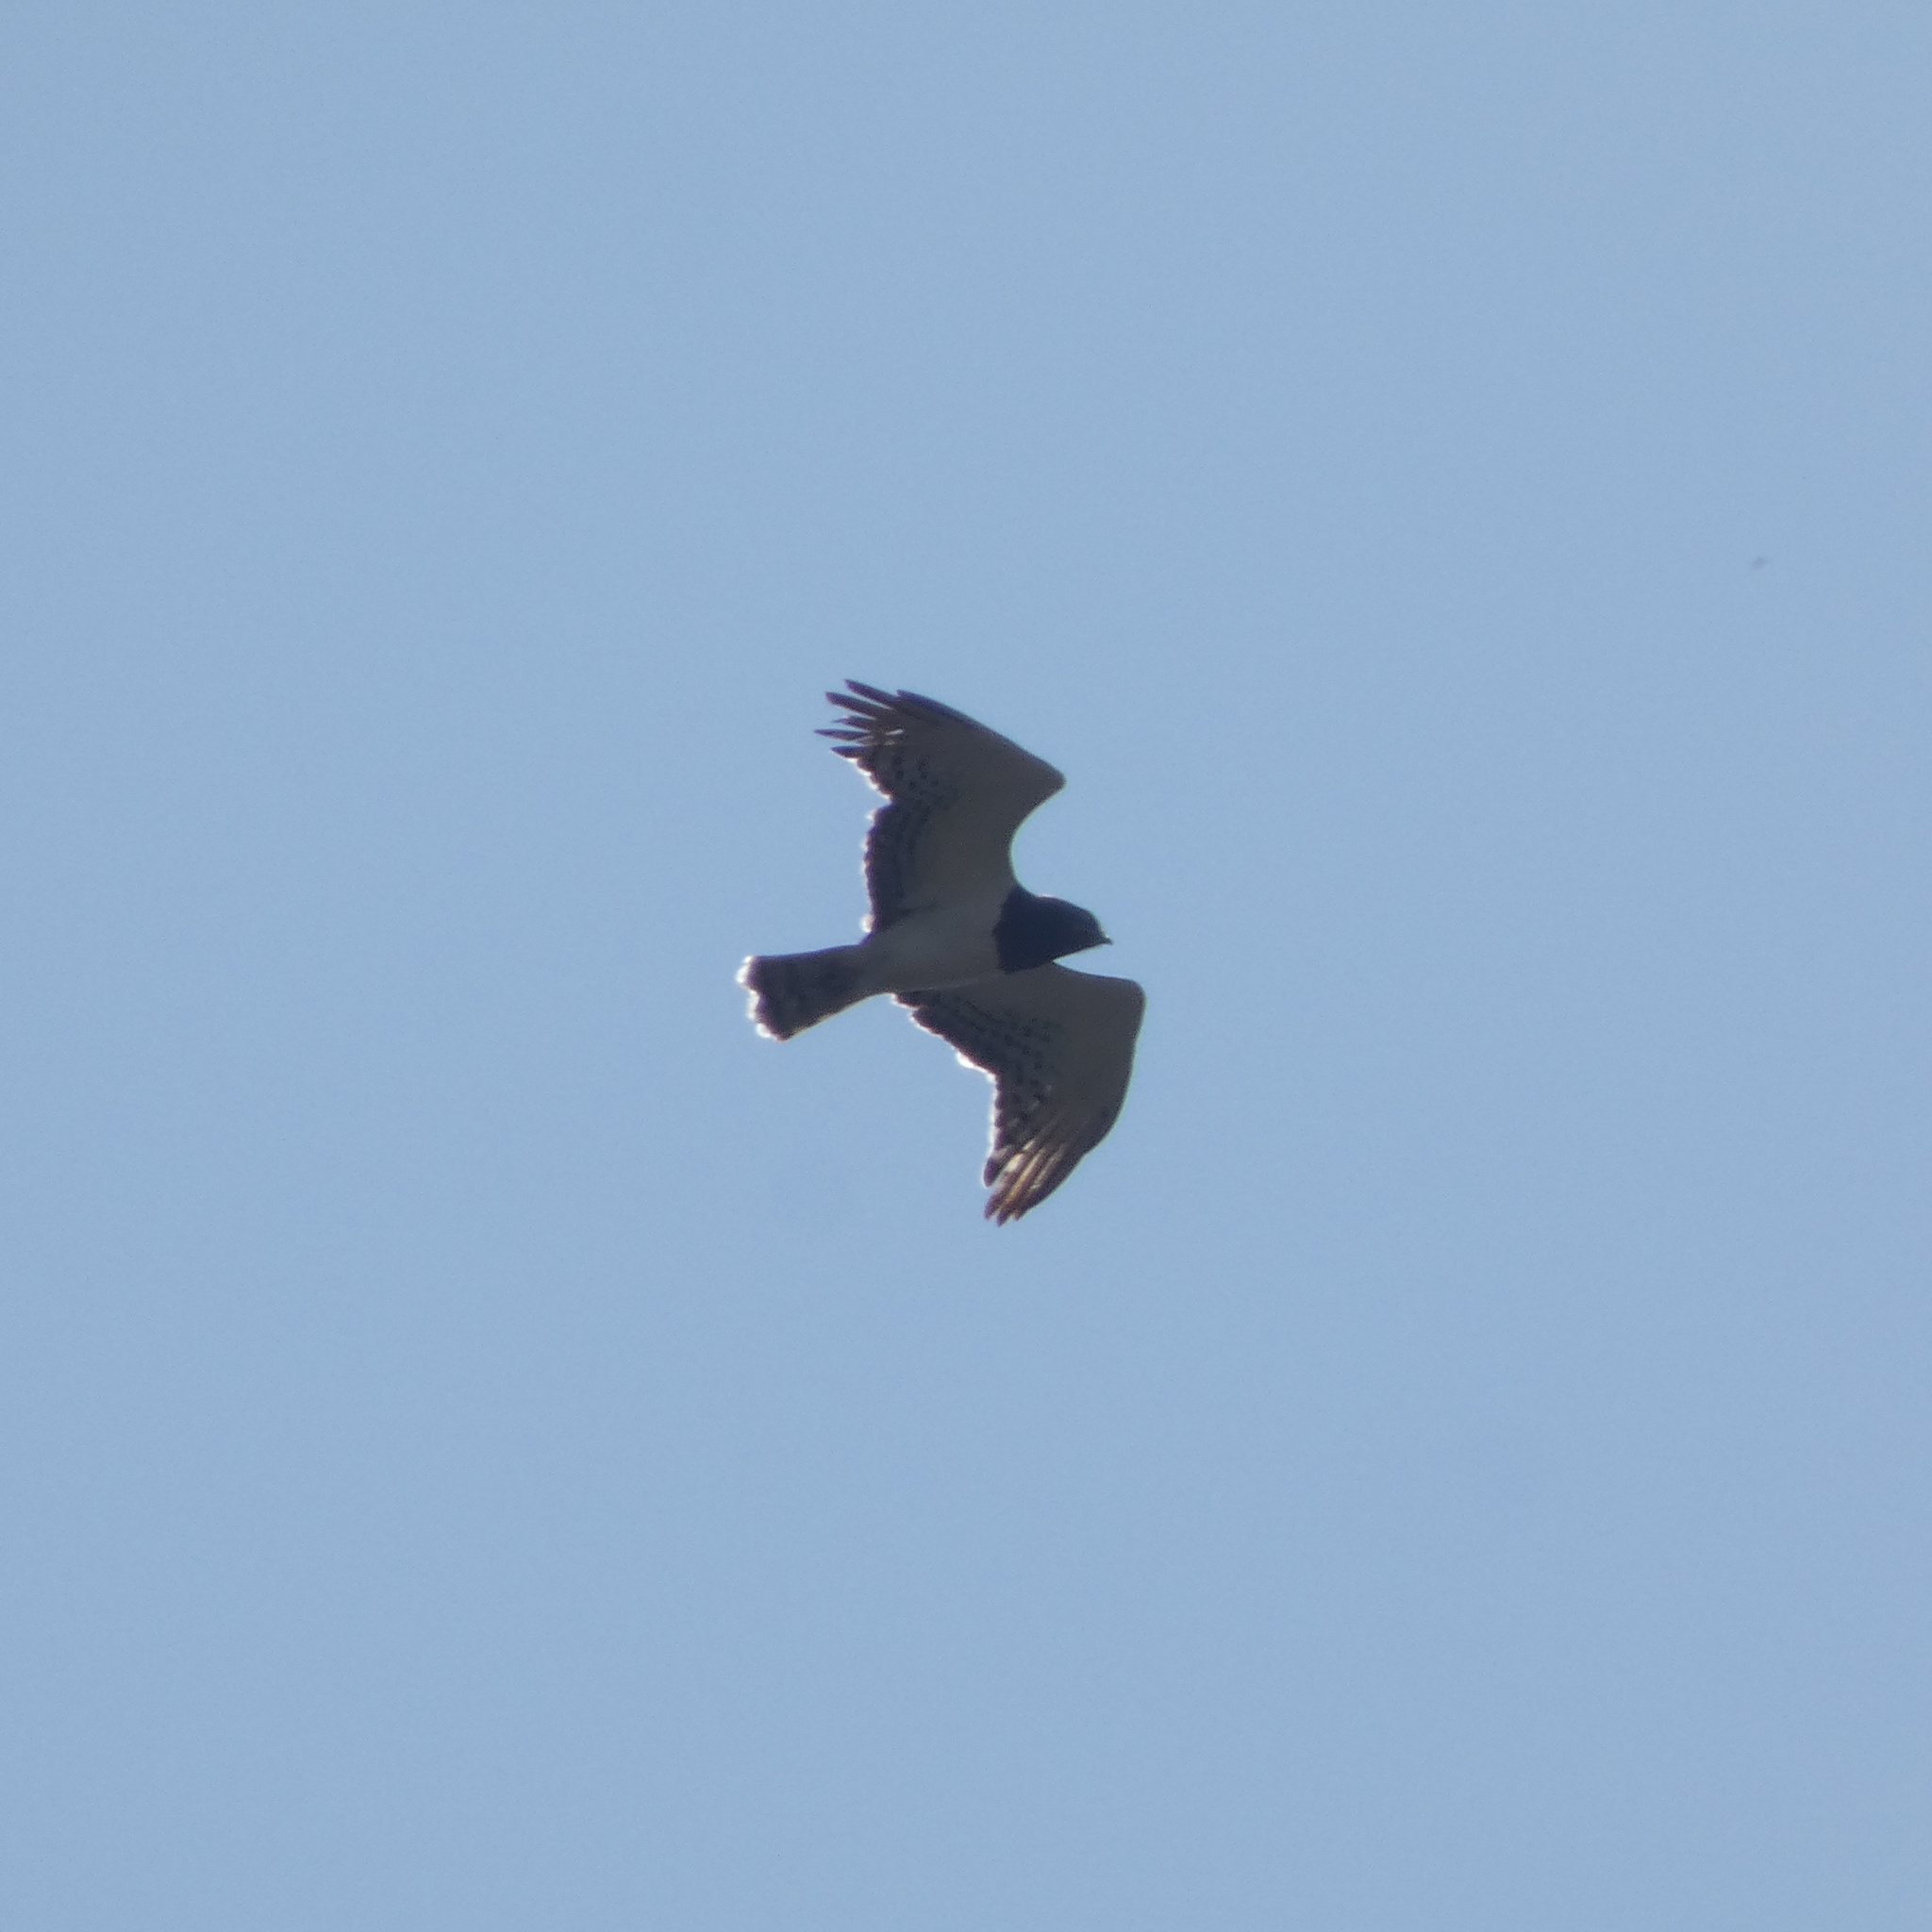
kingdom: Animalia
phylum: Chordata
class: Aves
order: Accipitriformes
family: Accipitridae
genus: Circaetus
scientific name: Circaetus pectoralis
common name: Black-chested snake eagle
